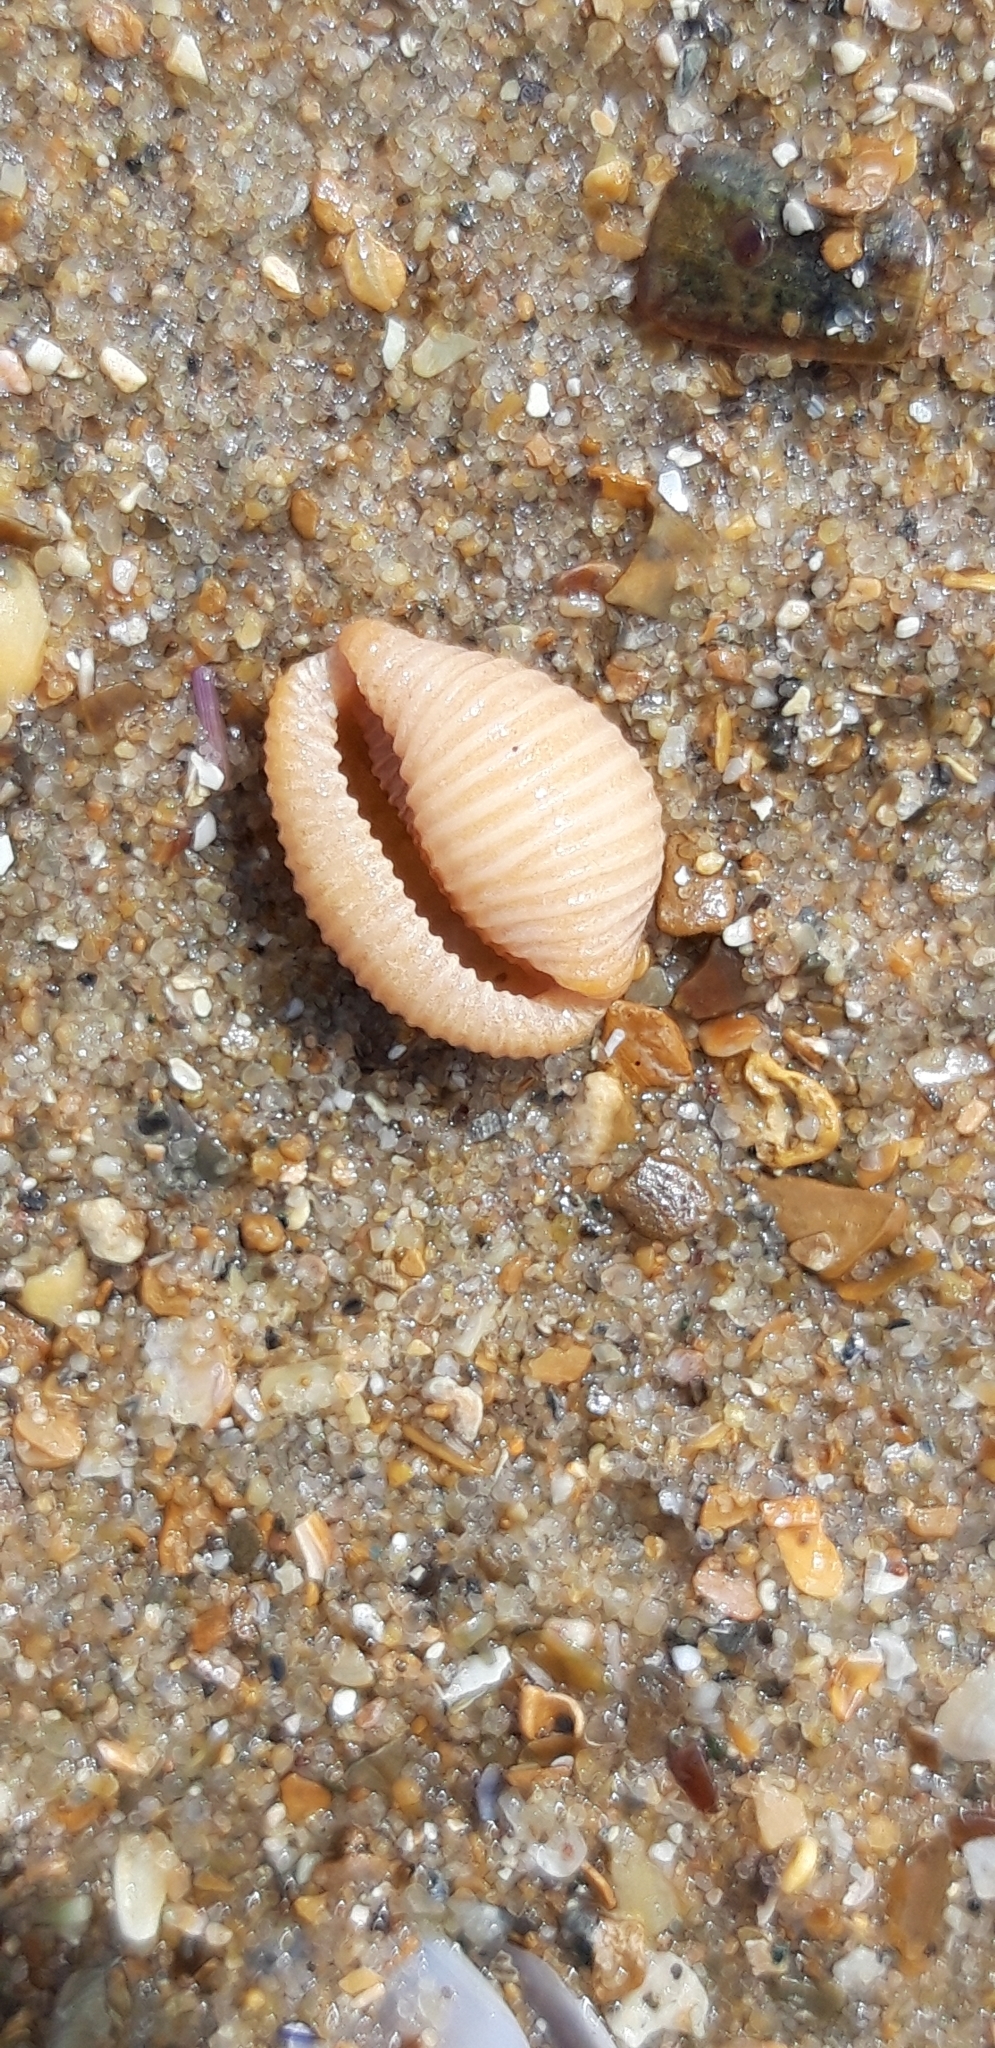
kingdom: Animalia
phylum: Mollusca
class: Gastropoda
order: Littorinimorpha
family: Triviidae
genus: Trivia
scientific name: Trivia arctica
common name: Arctic cowrie
